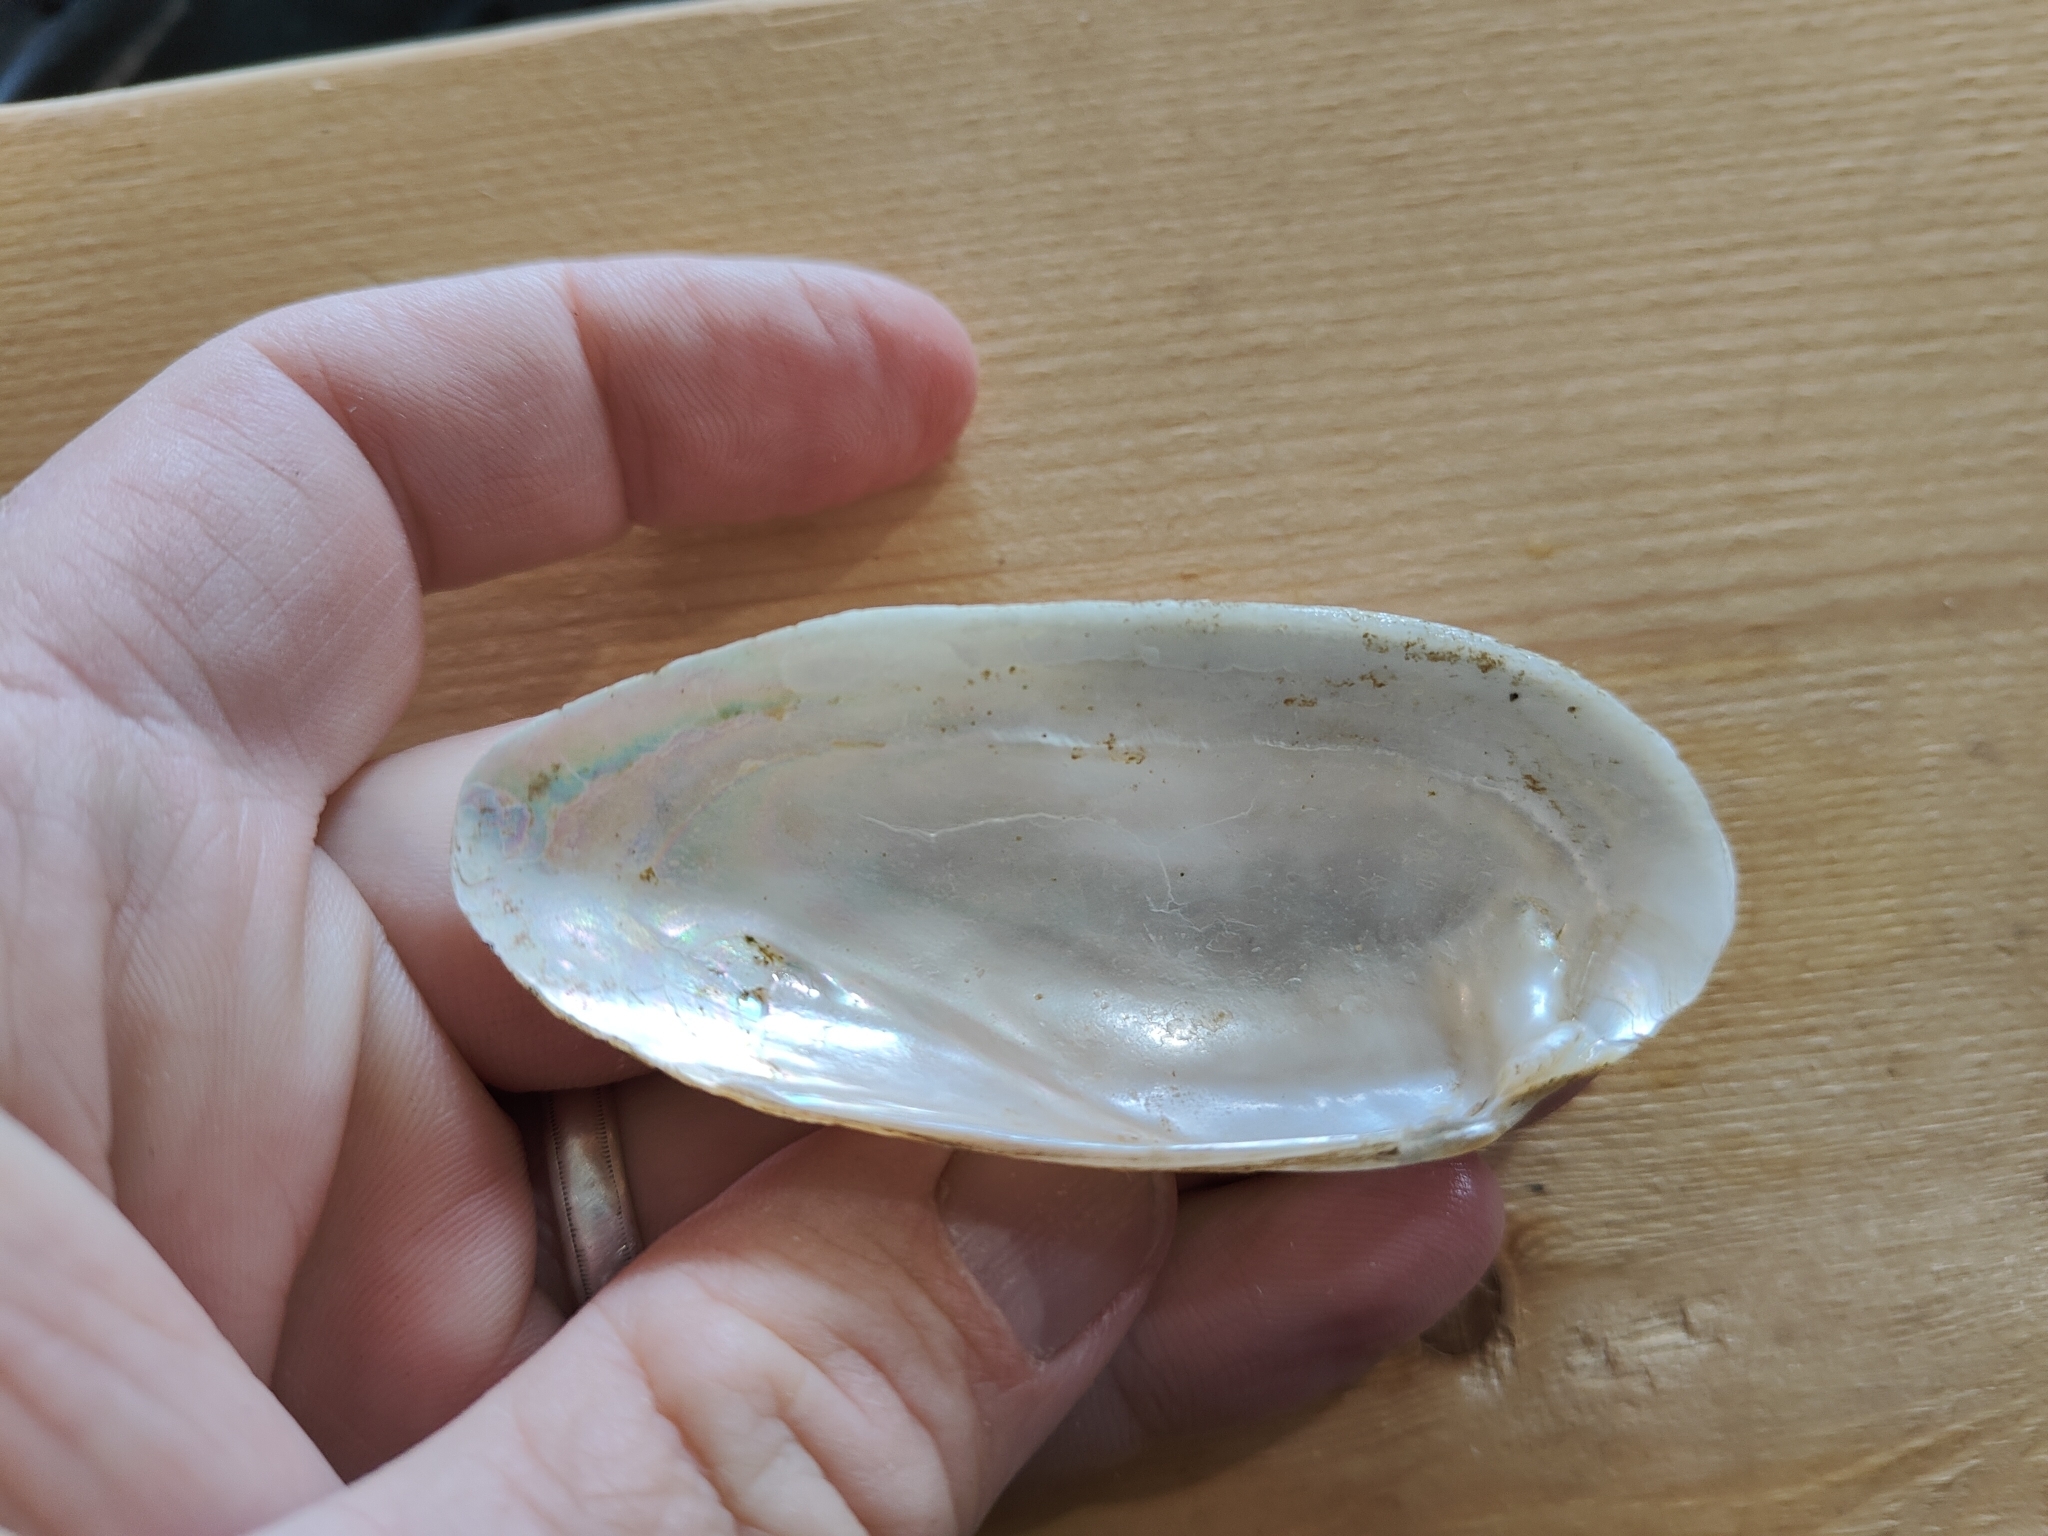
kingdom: Animalia
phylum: Mollusca
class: Bivalvia
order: Unionida
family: Unionidae
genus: Lampsilis
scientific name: Lampsilis teres
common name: Yellow sandshell
